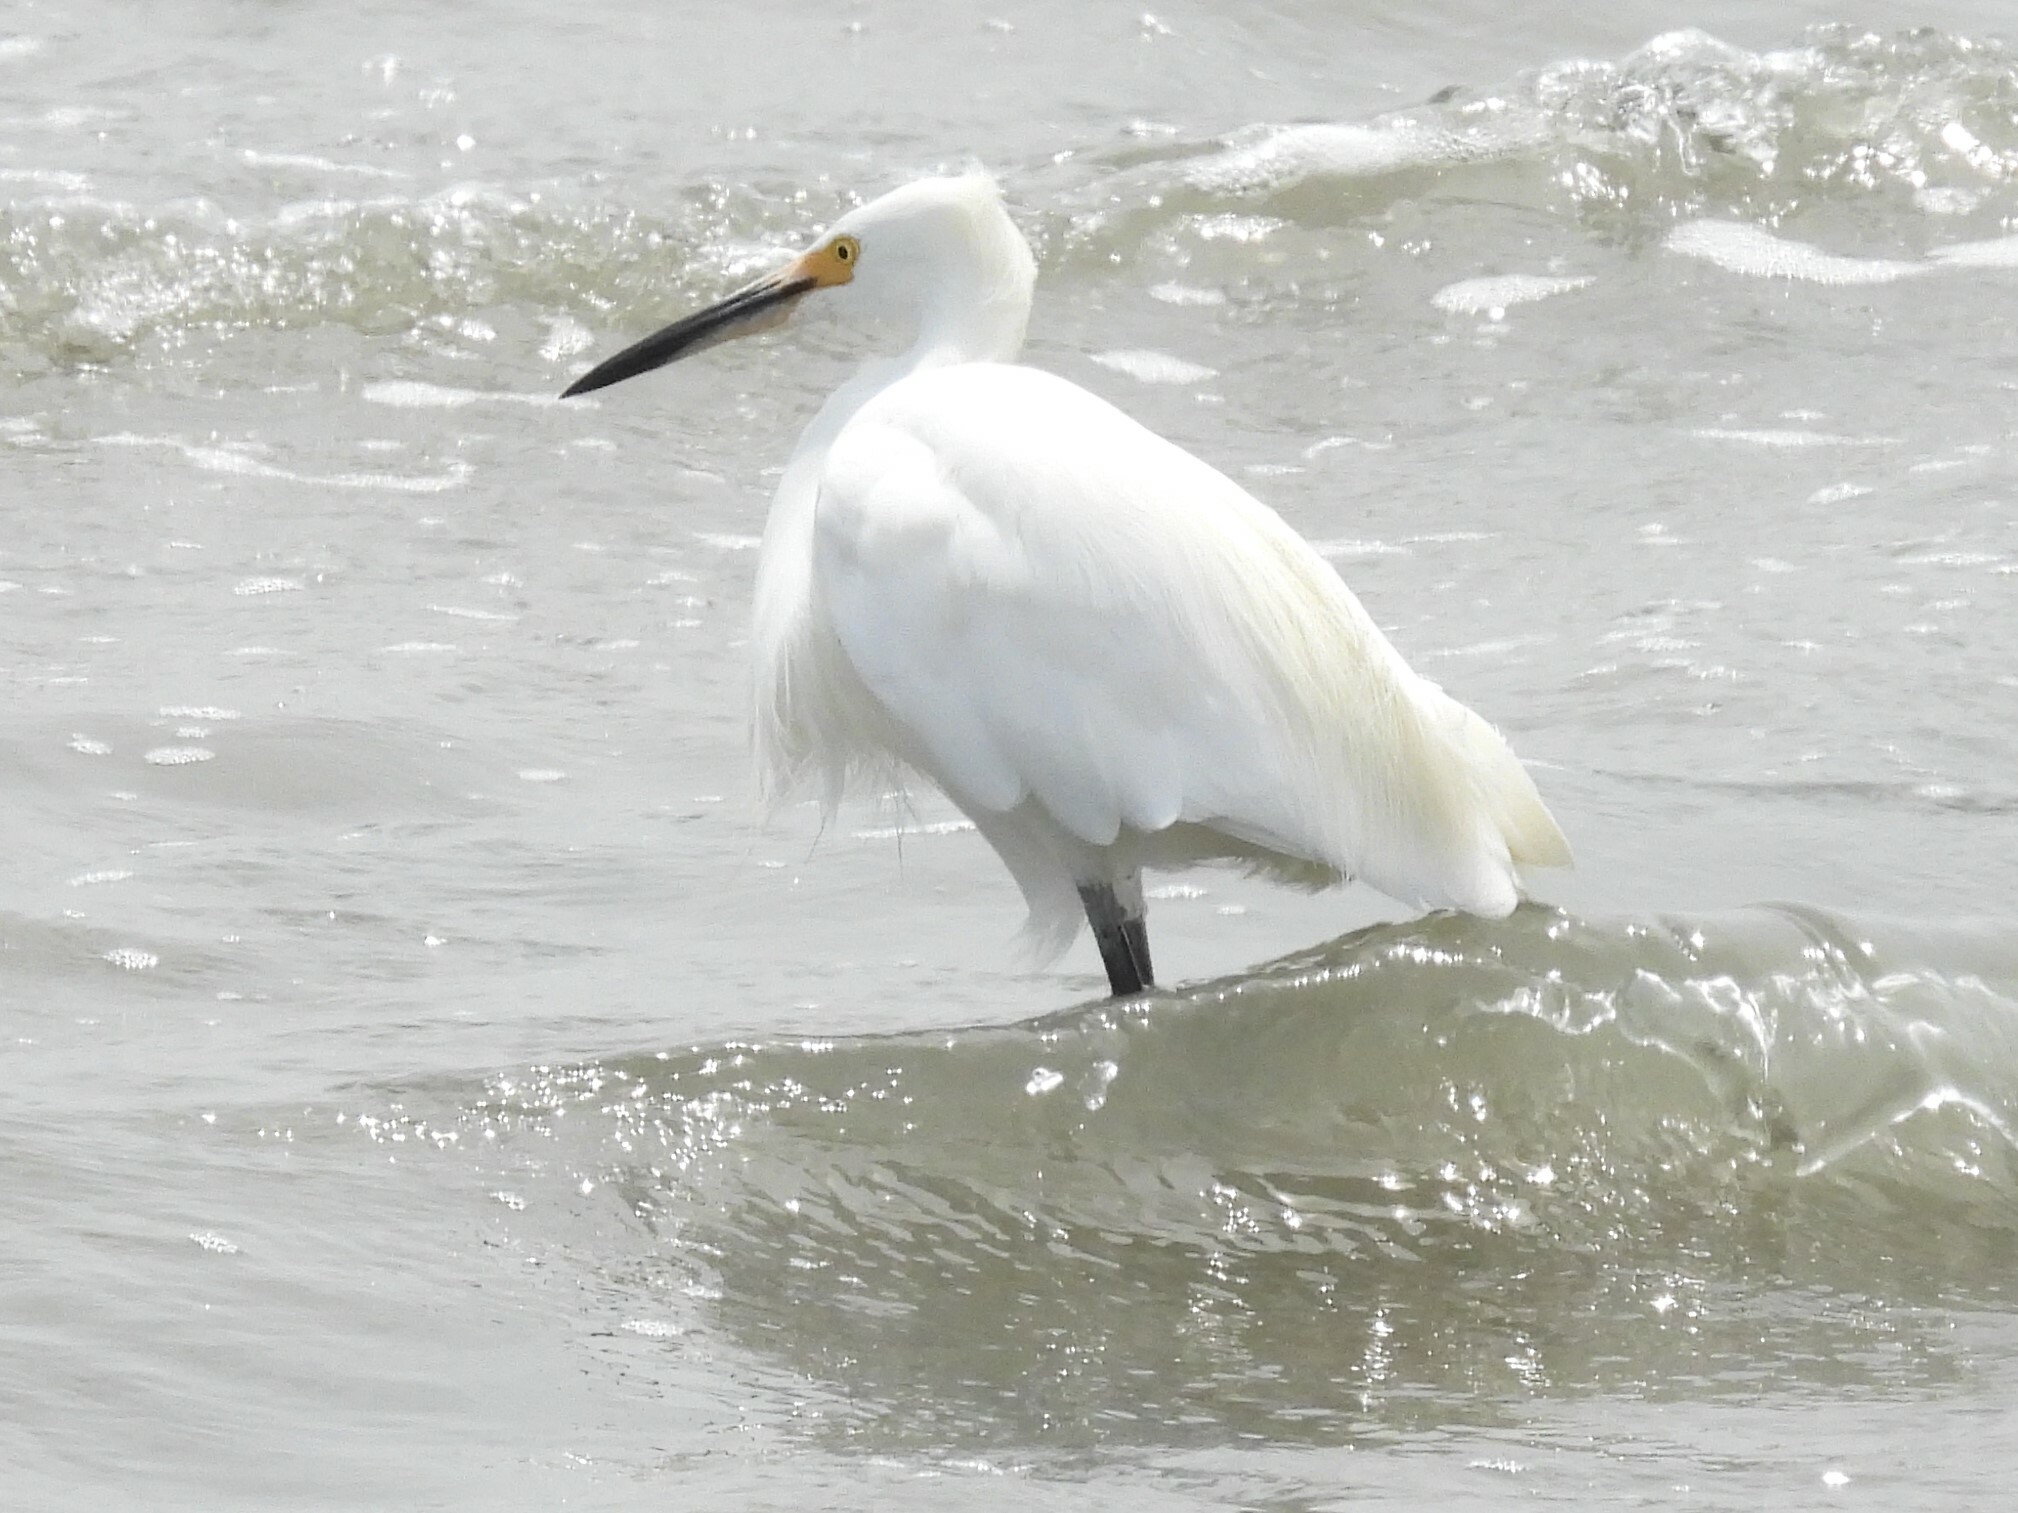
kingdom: Animalia
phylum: Chordata
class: Aves
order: Pelecaniformes
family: Ardeidae
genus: Egretta
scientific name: Egretta thula
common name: Snowy egret
